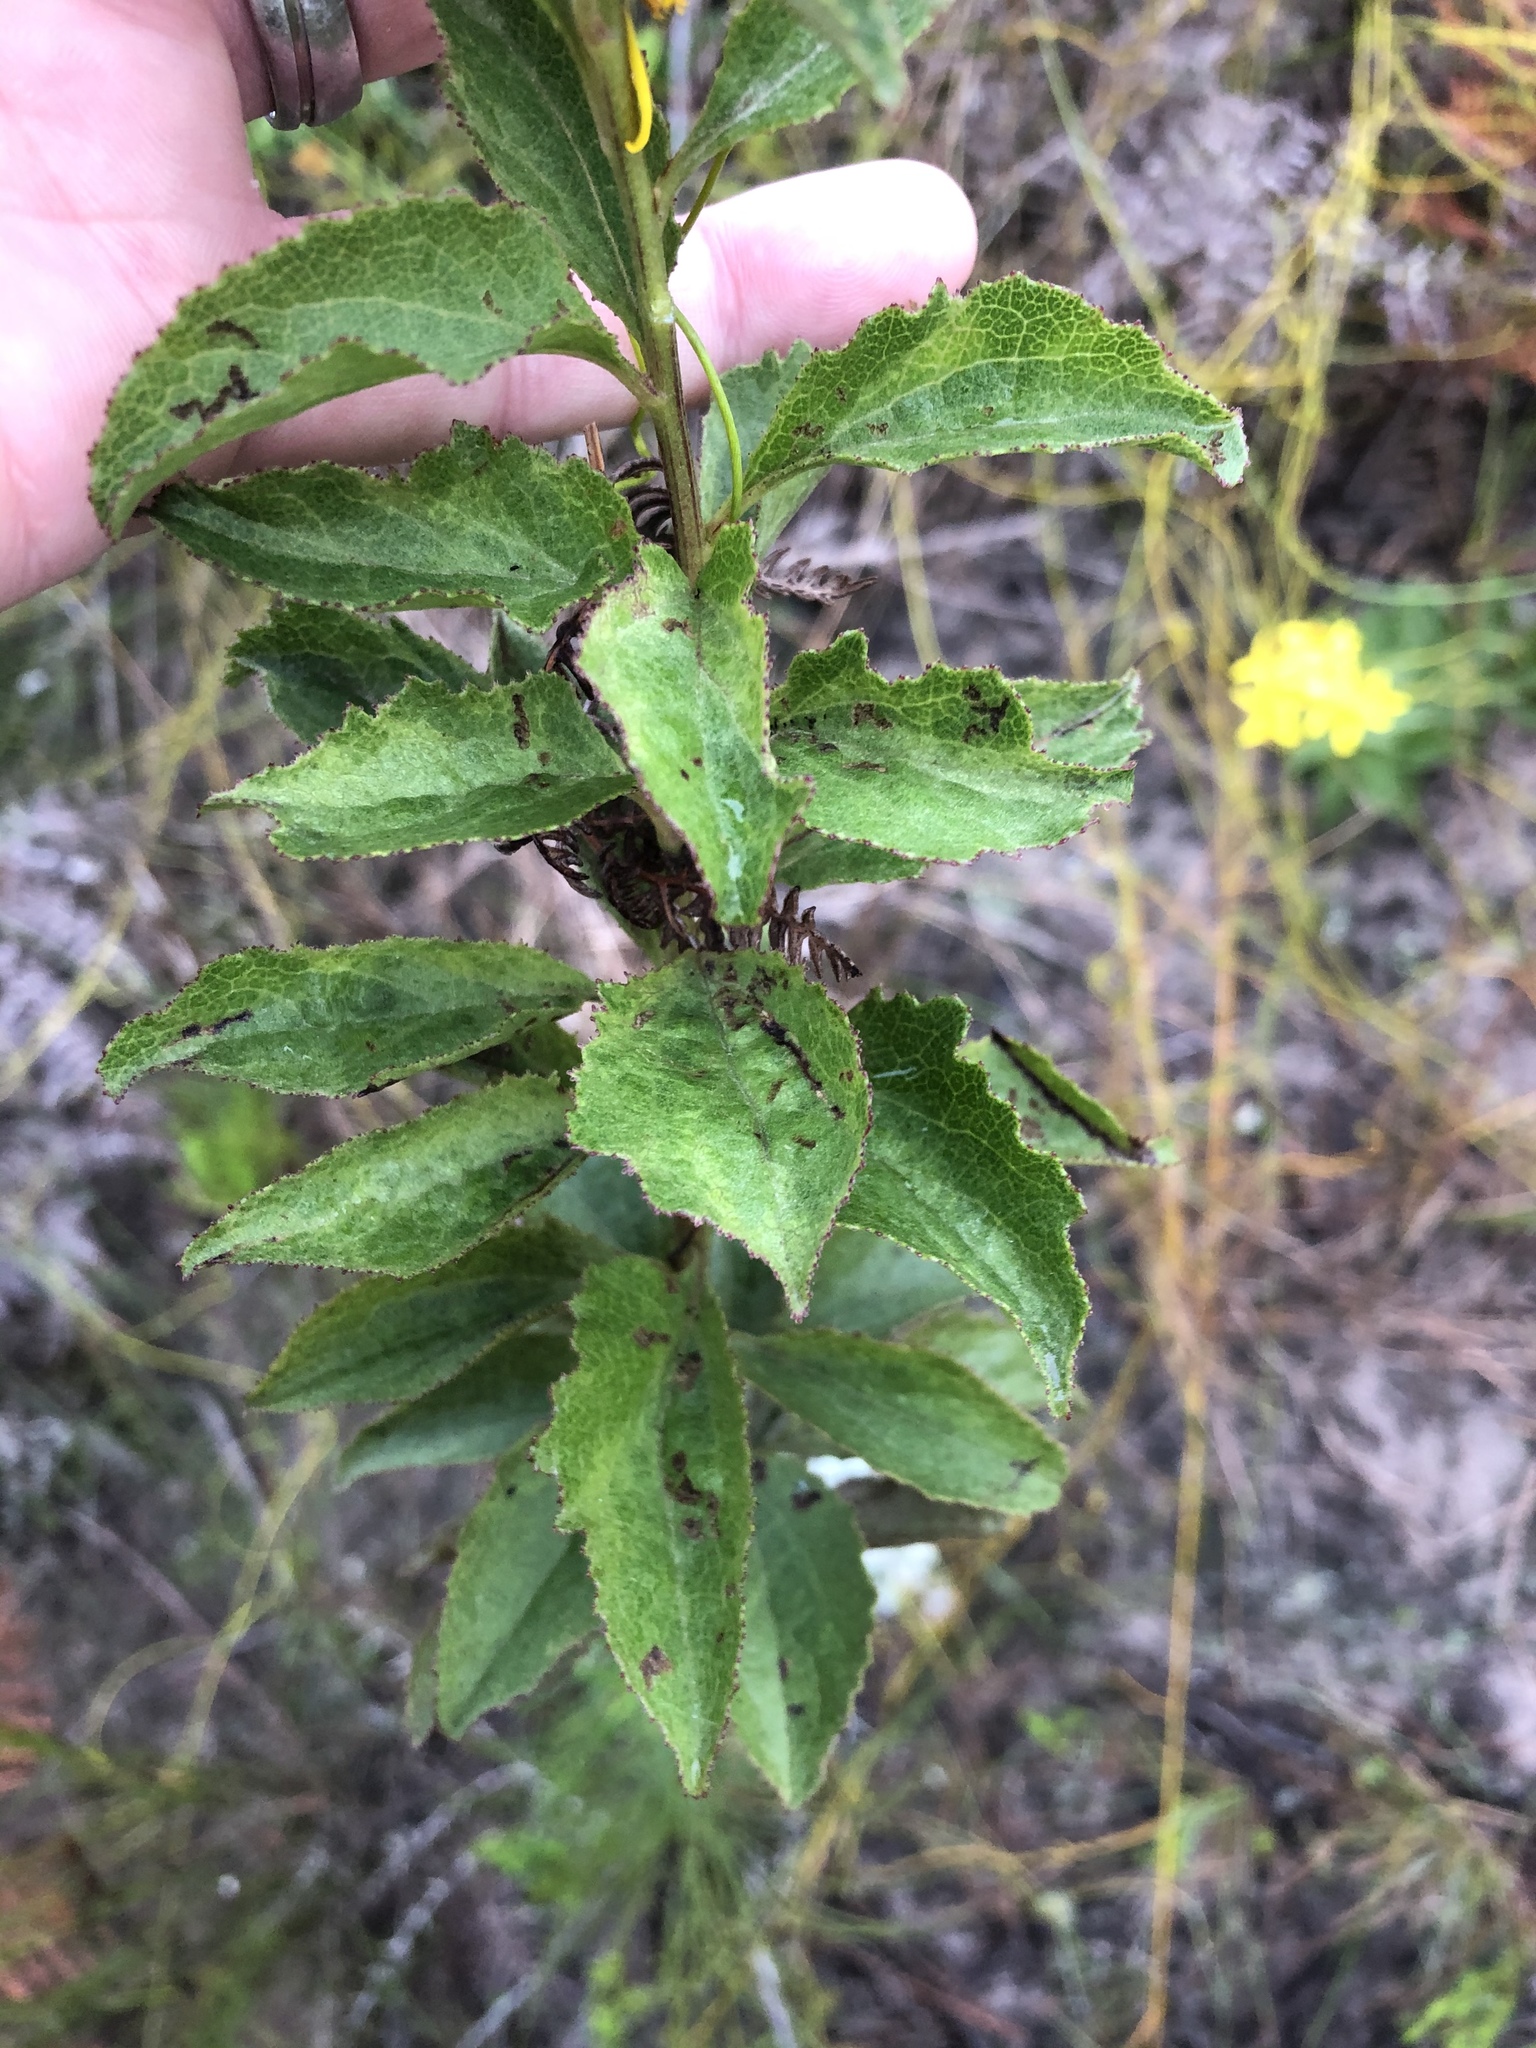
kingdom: Plantae
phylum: Tracheophyta
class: Magnoliopsida
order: Asterales
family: Asteraceae
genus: Senecio
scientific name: Senecio crenatus
